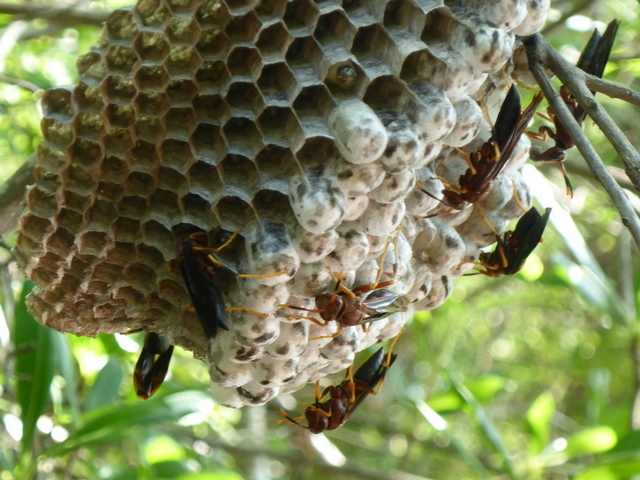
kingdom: Animalia
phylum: Arthropoda
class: Insecta
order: Hymenoptera
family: Eumenidae
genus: Polistes
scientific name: Polistes annularis
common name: Ringed paper wasp
